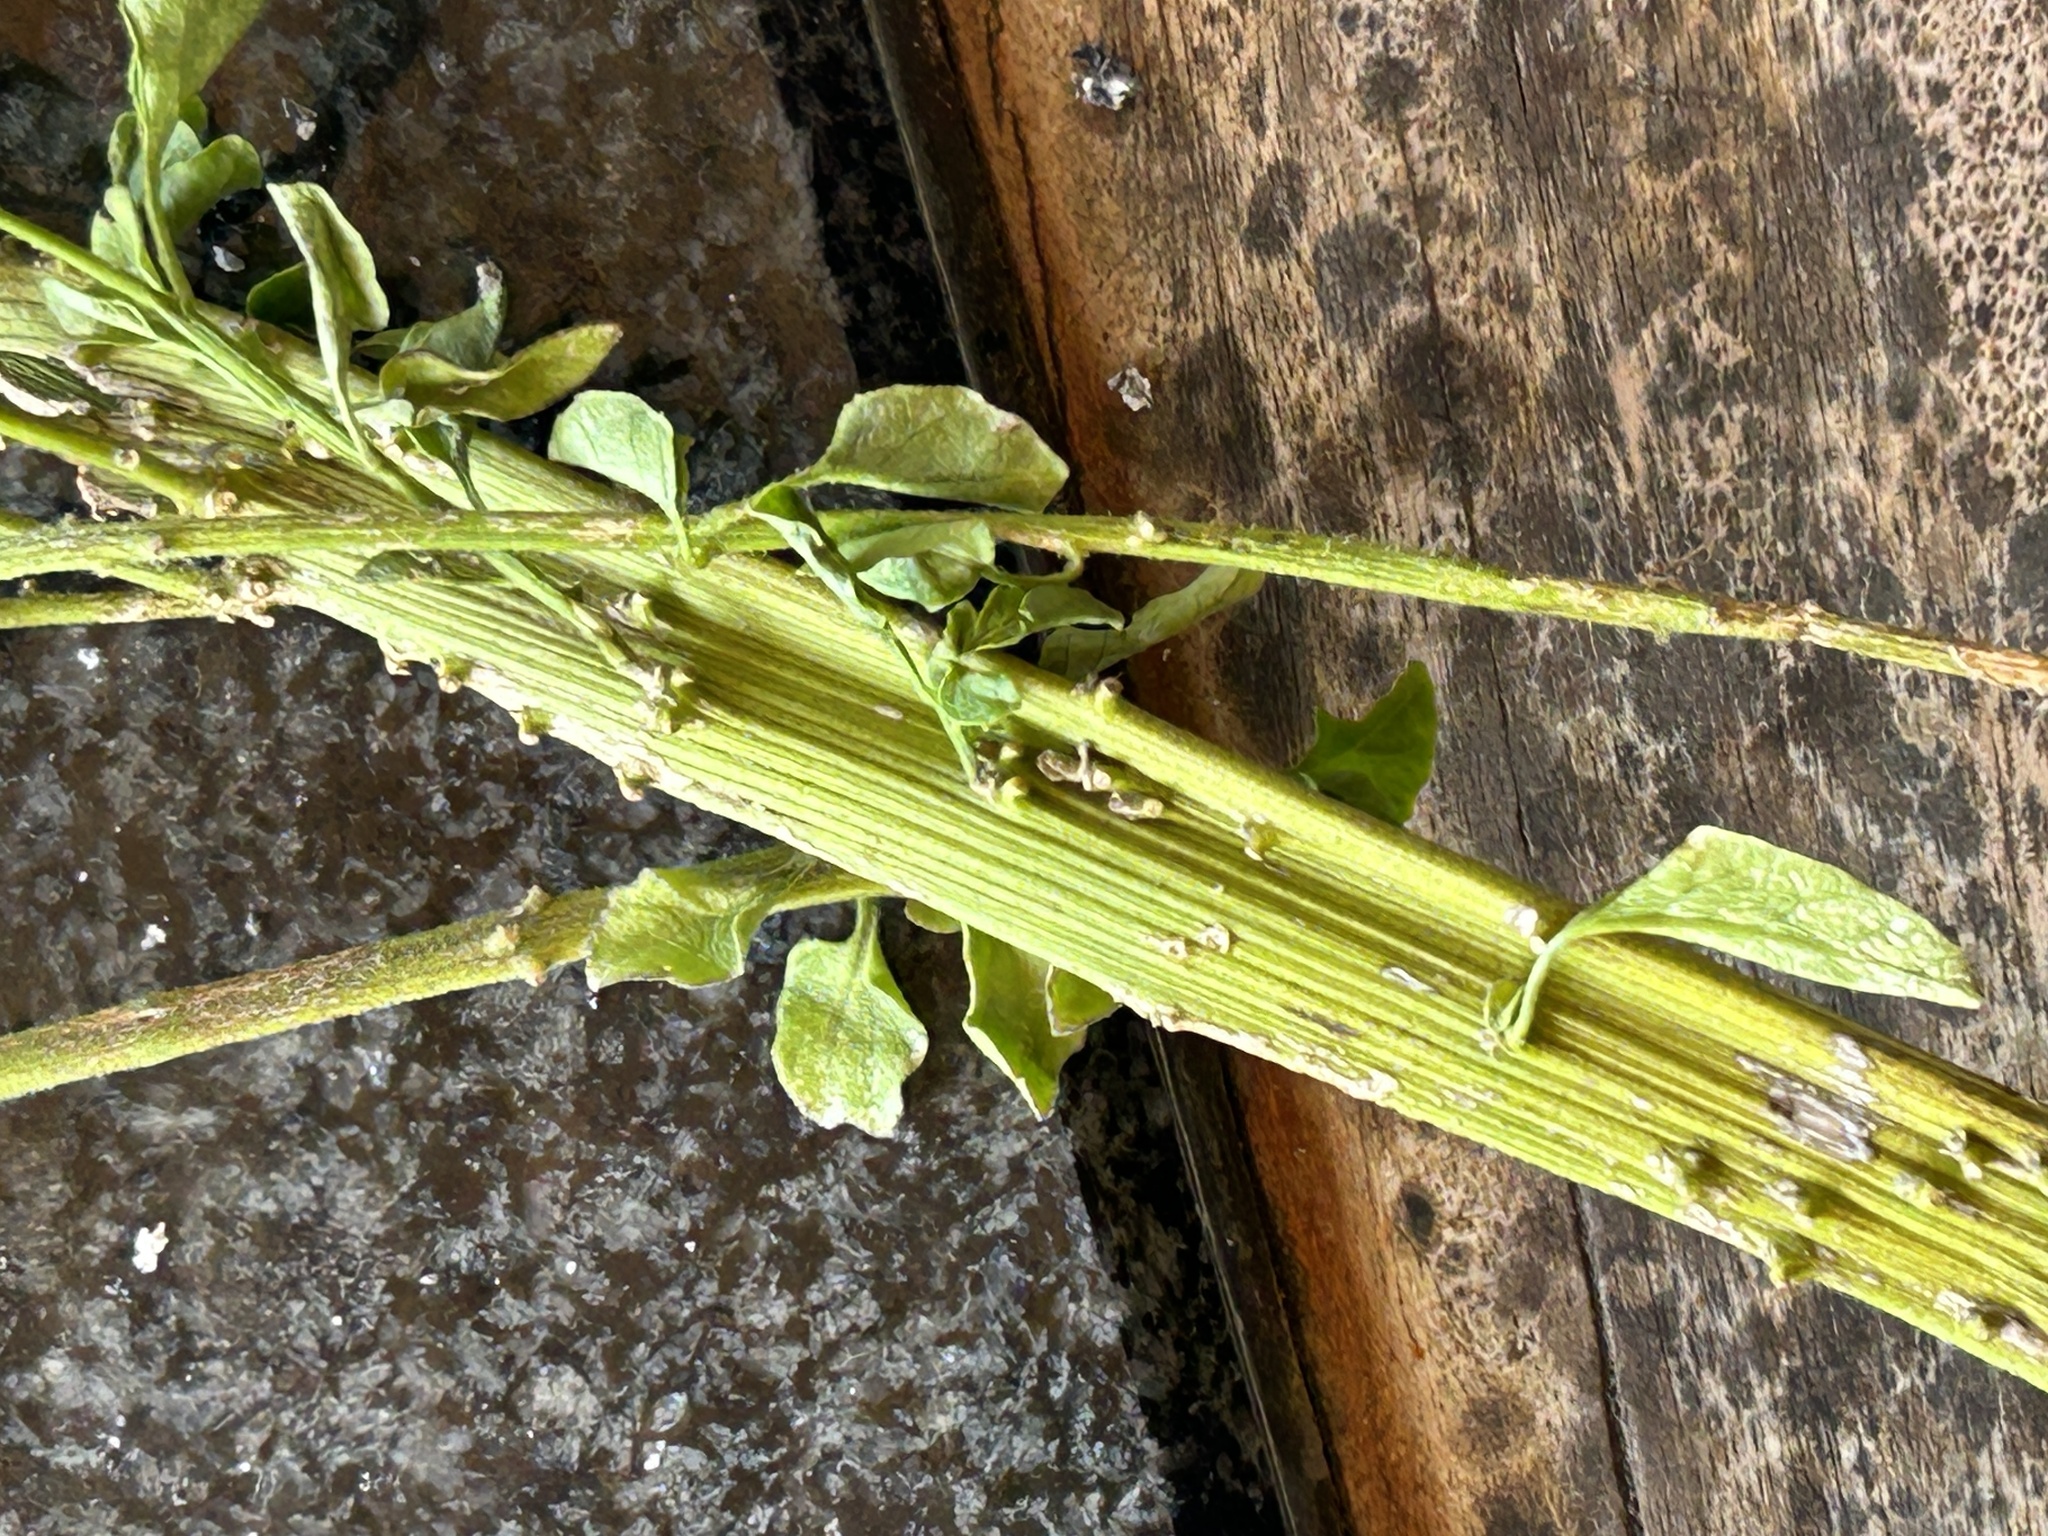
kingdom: Plantae
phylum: Tracheophyta
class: Magnoliopsida
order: Solanales
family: Solanaceae
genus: Solanum
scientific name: Solanum africanum
